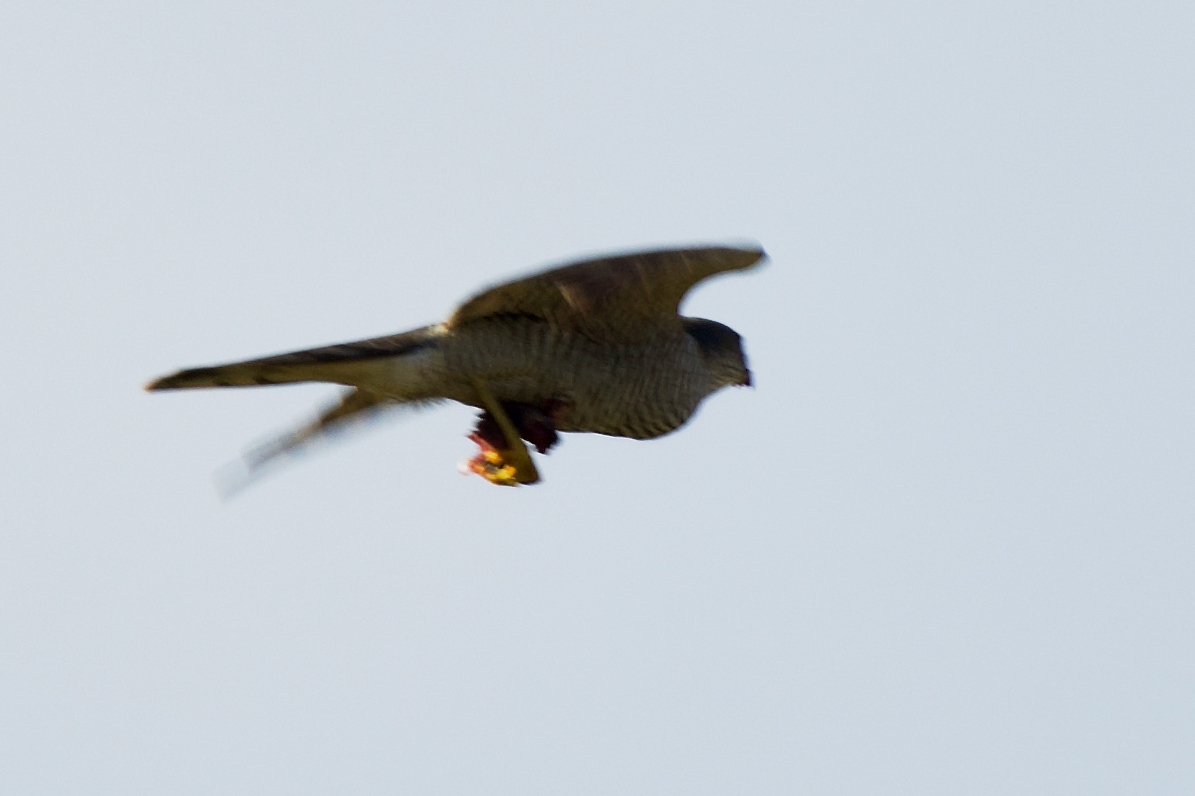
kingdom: Animalia
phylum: Chordata
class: Aves
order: Accipitriformes
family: Accipitridae
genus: Accipiter
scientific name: Accipiter nisus
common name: Eurasian sparrowhawk
